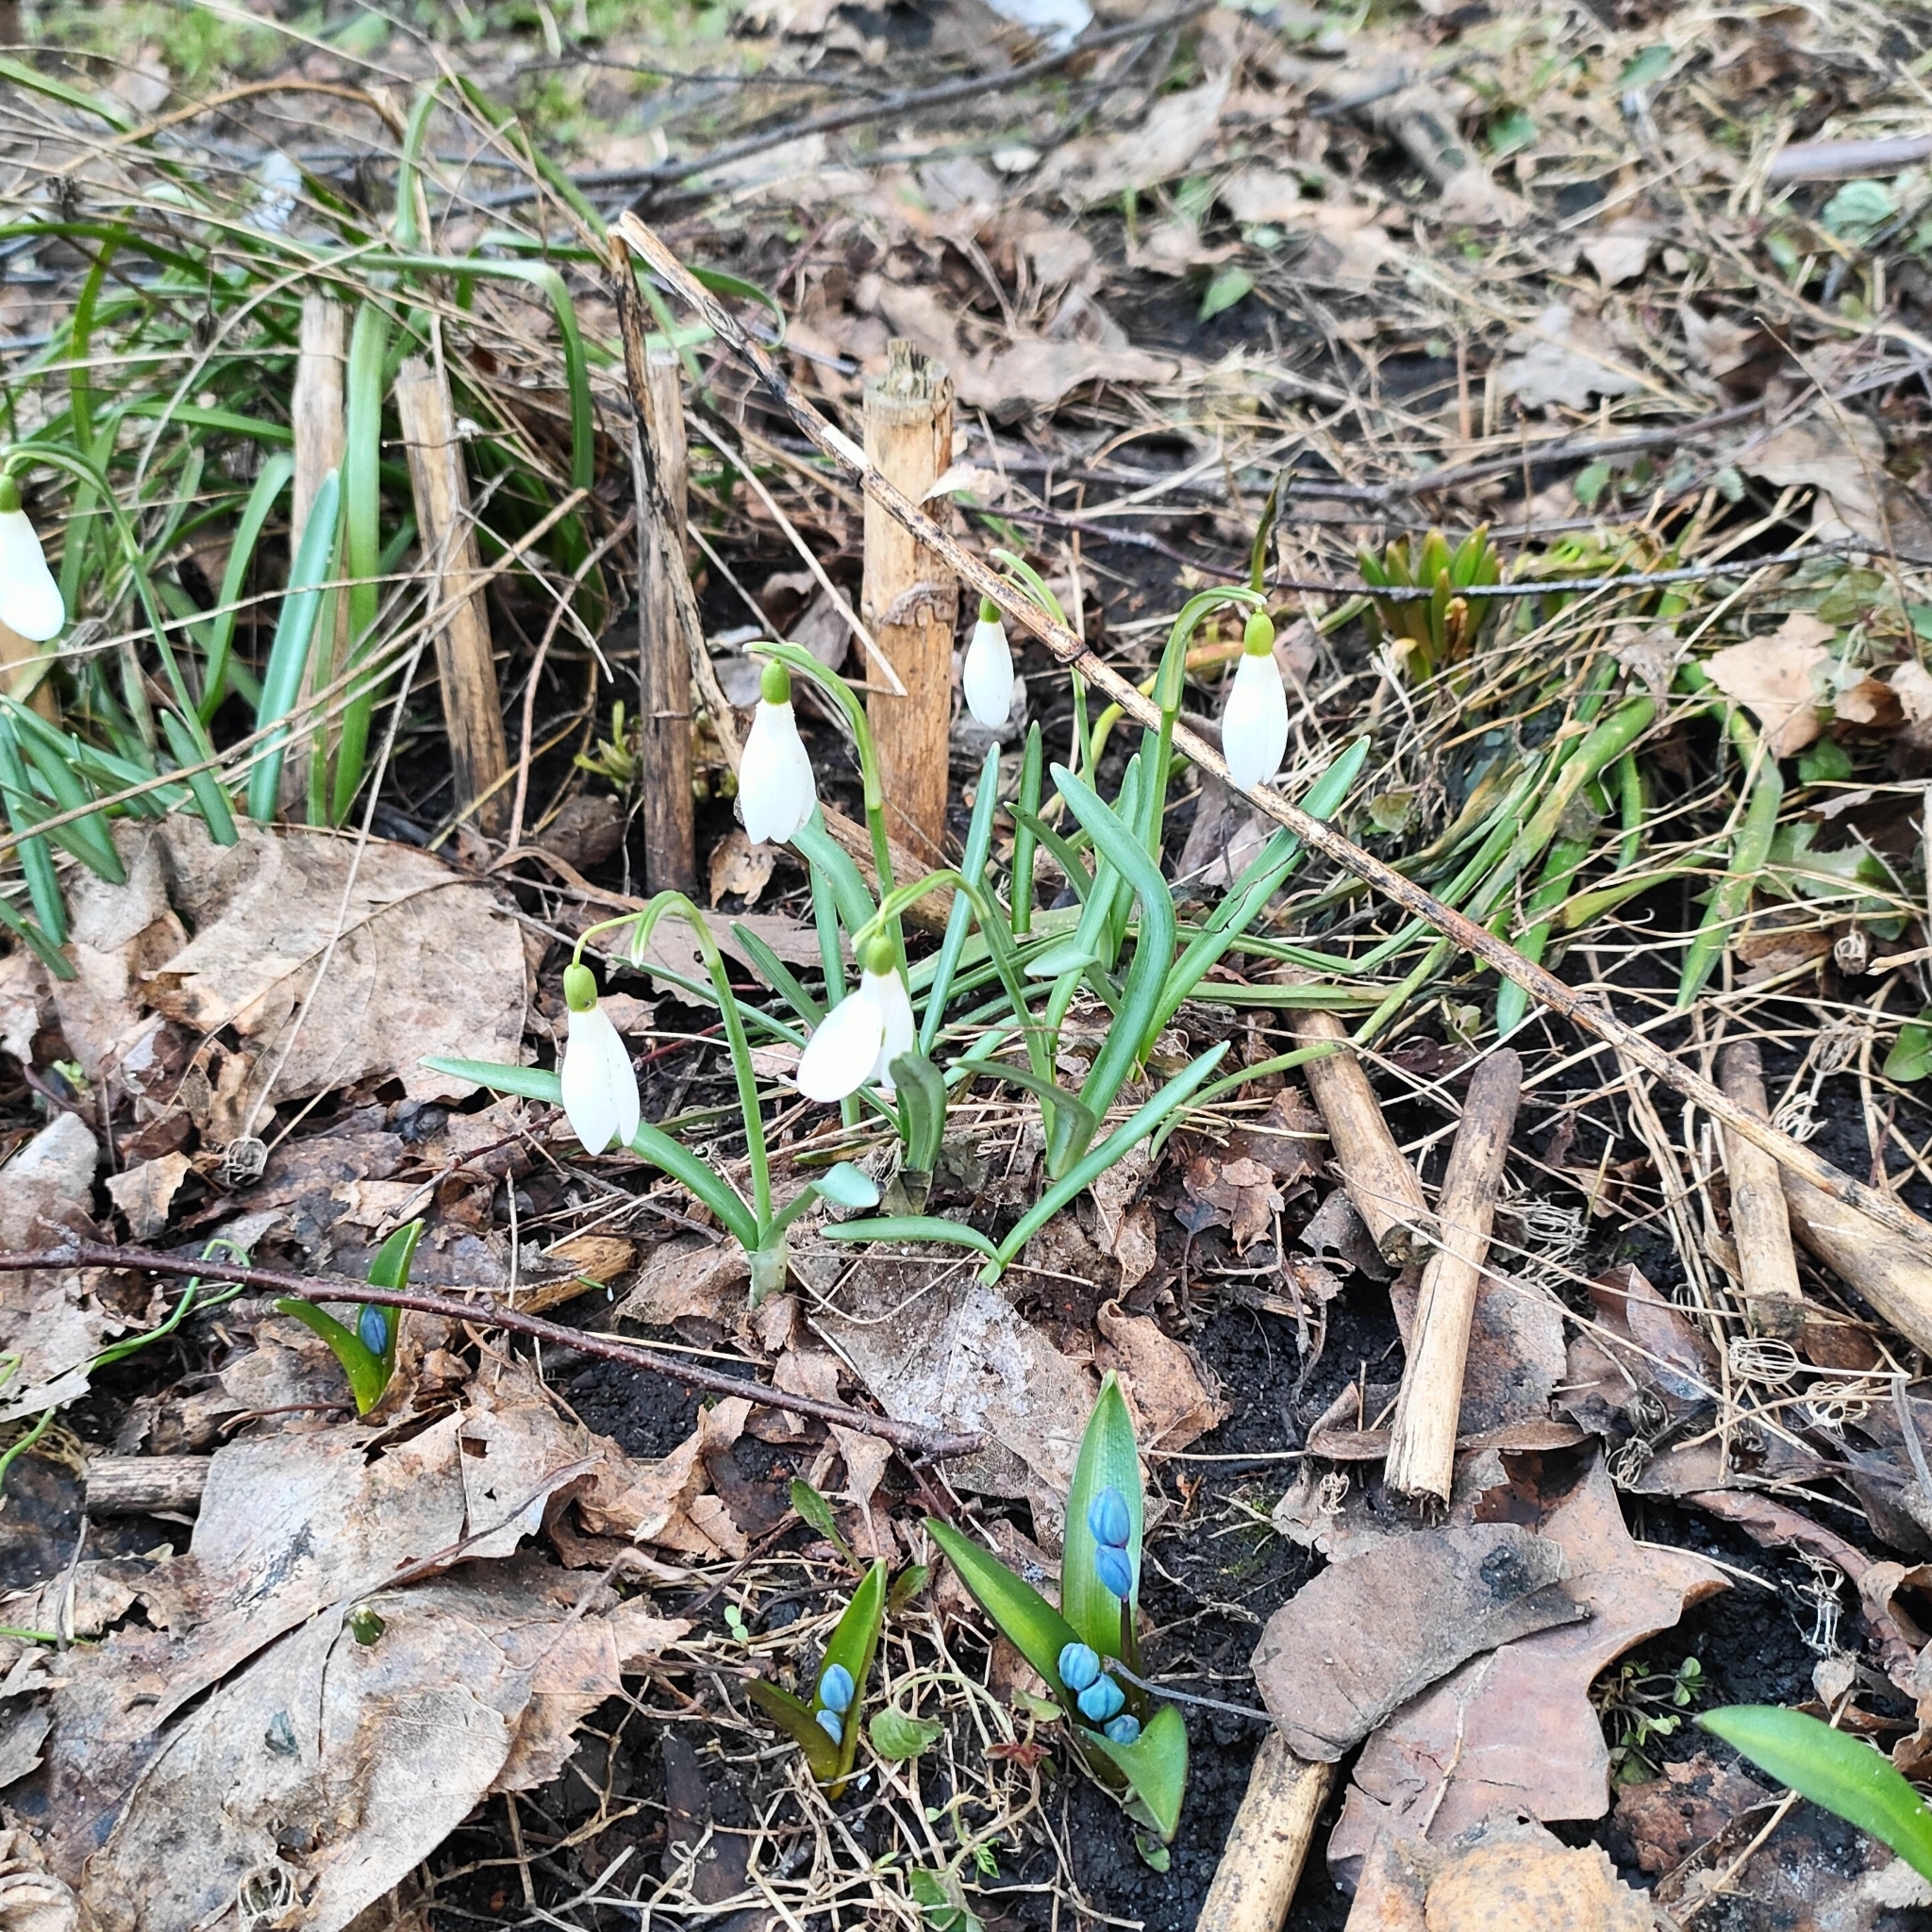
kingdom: Plantae
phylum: Tracheophyta
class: Liliopsida
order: Asparagales
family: Amaryllidaceae
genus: Galanthus
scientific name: Galanthus nivalis
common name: Snowdrop
